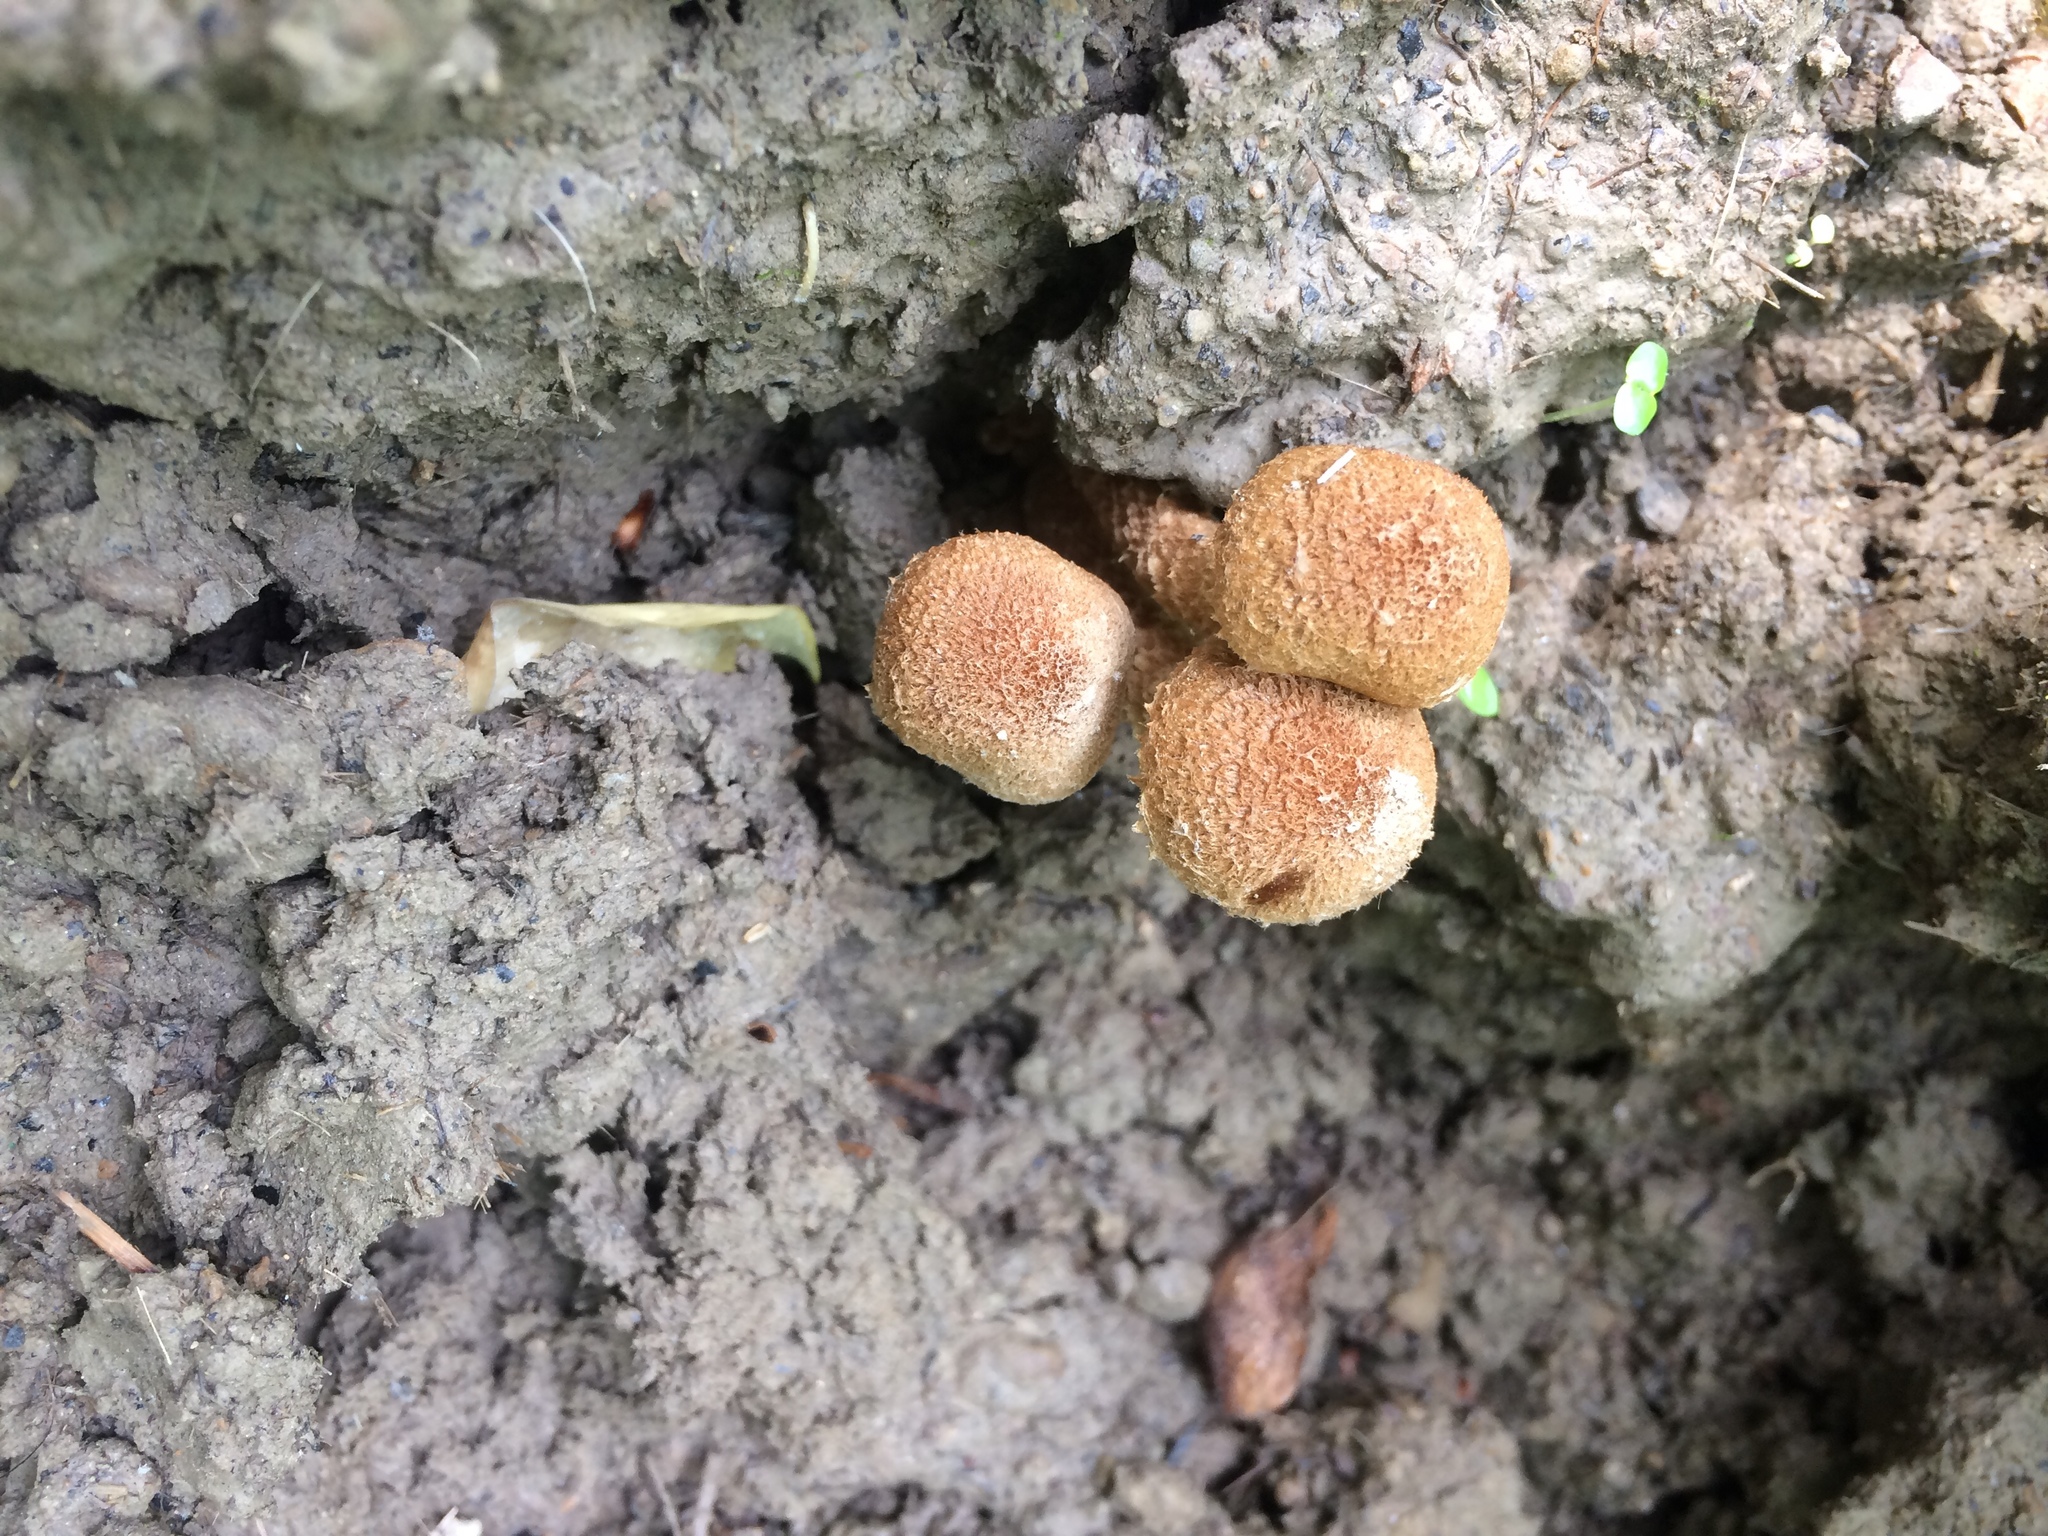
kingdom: Fungi
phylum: Basidiomycota
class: Agaricomycetes
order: Agaricales
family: Psathyrellaceae
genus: Lacrymaria
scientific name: Lacrymaria lacrymabunda
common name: Weeping widow
